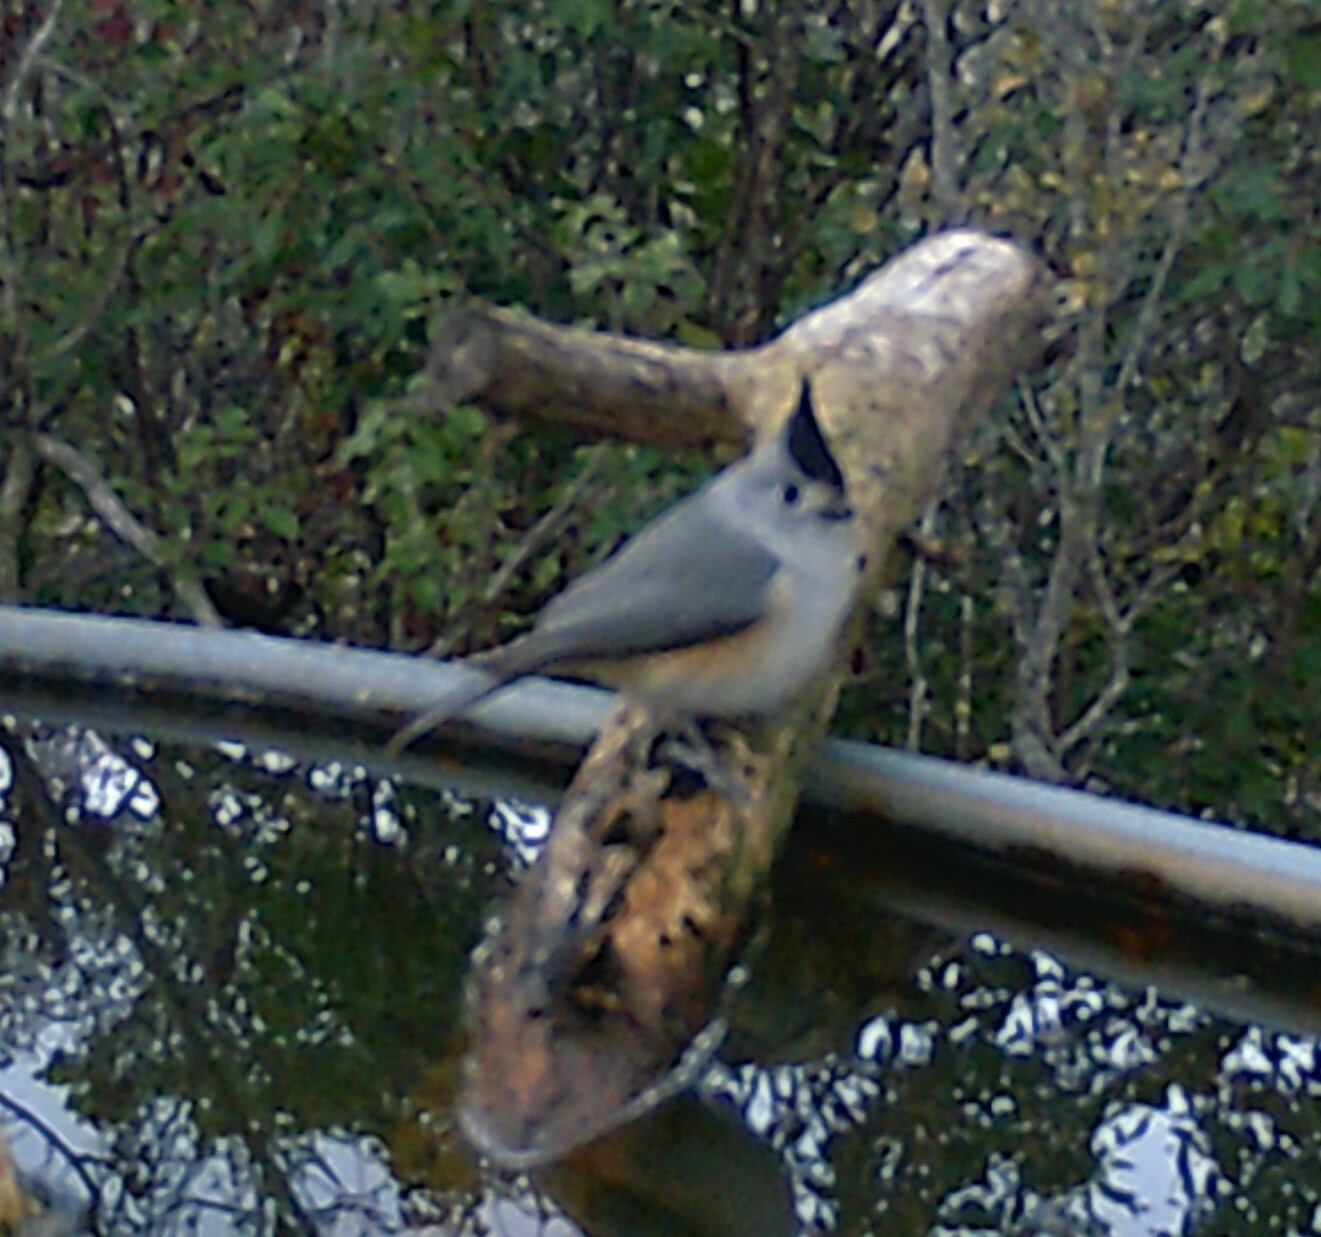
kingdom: Animalia
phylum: Chordata
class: Aves
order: Passeriformes
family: Paridae
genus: Baeolophus
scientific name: Baeolophus atricristatus
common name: Black-crested titmouse
